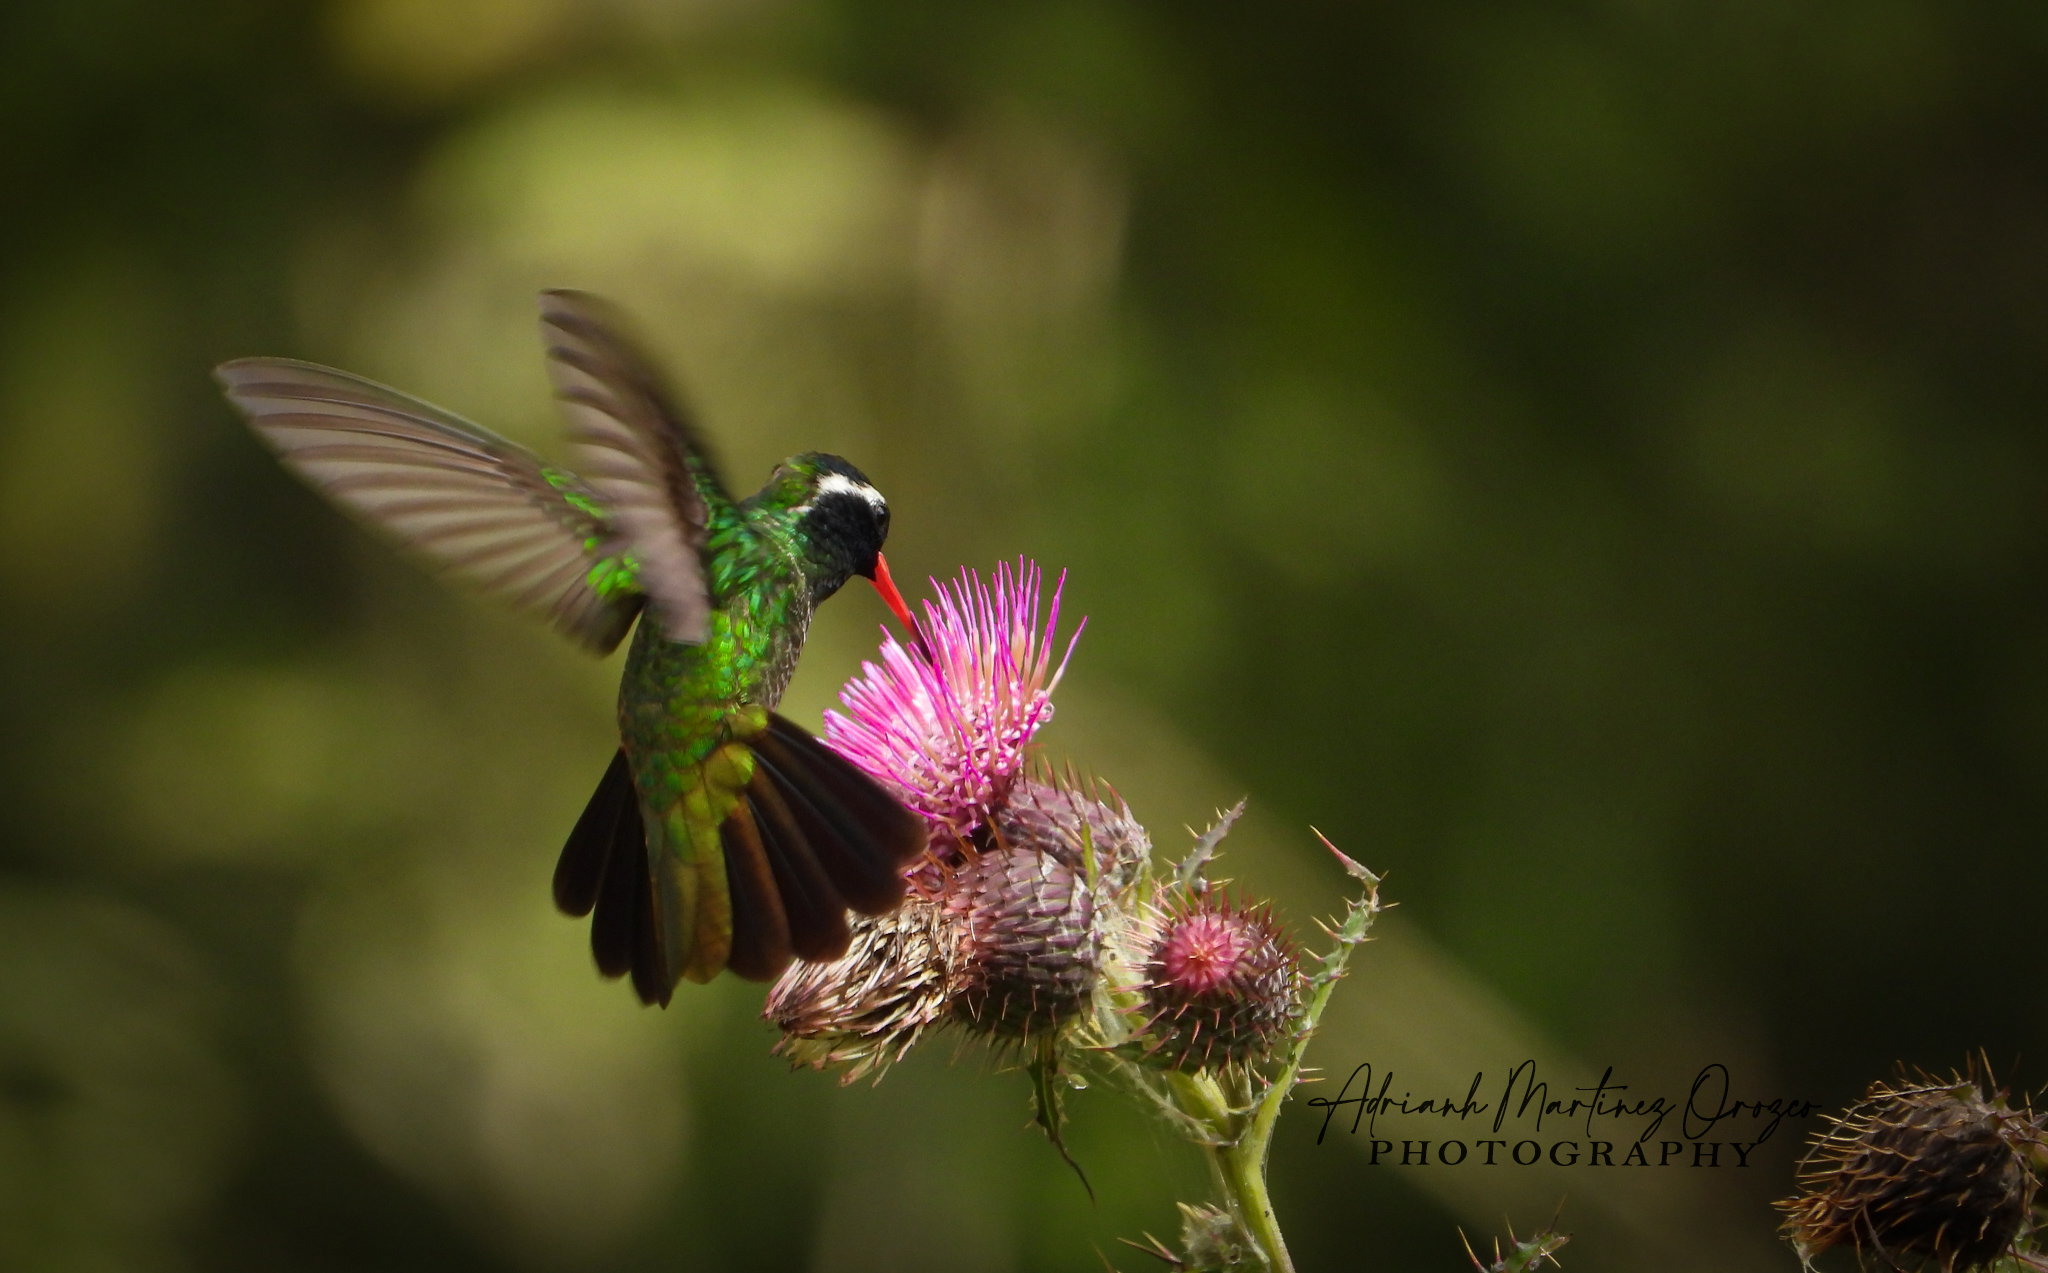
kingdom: Animalia
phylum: Chordata
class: Aves
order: Apodiformes
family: Trochilidae
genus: Basilinna
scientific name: Basilinna leucotis
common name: White-eared hummingbird
